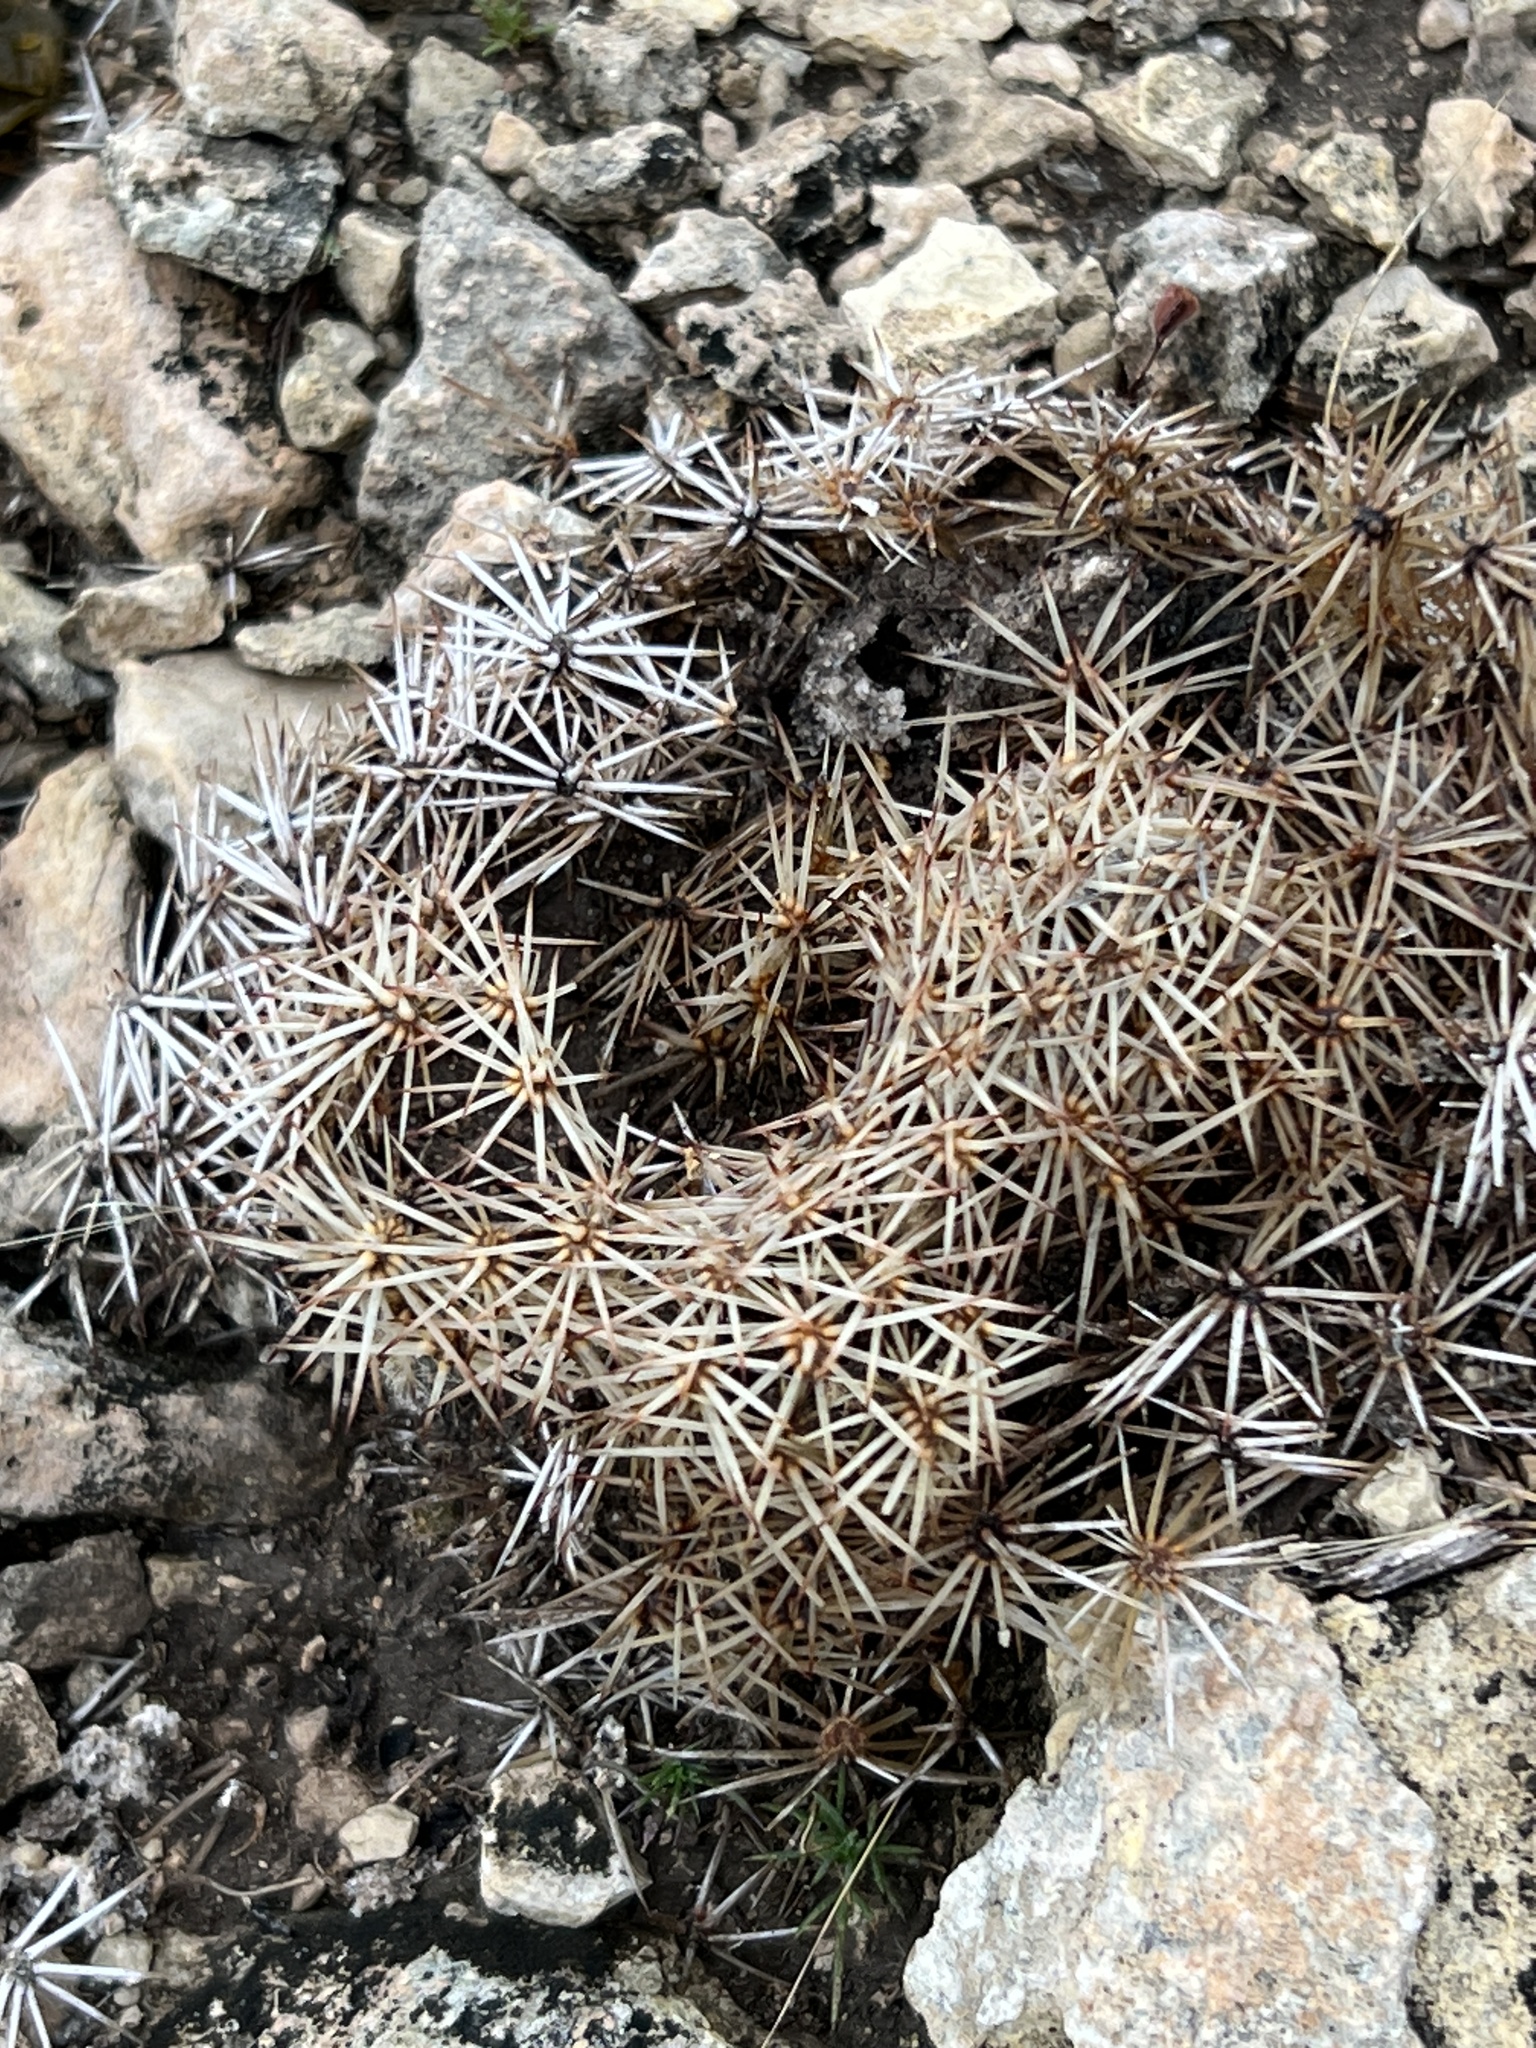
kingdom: Plantae
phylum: Tracheophyta
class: Magnoliopsida
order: Caryophyllales
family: Cactaceae
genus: Coryphantha
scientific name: Coryphantha echinus
